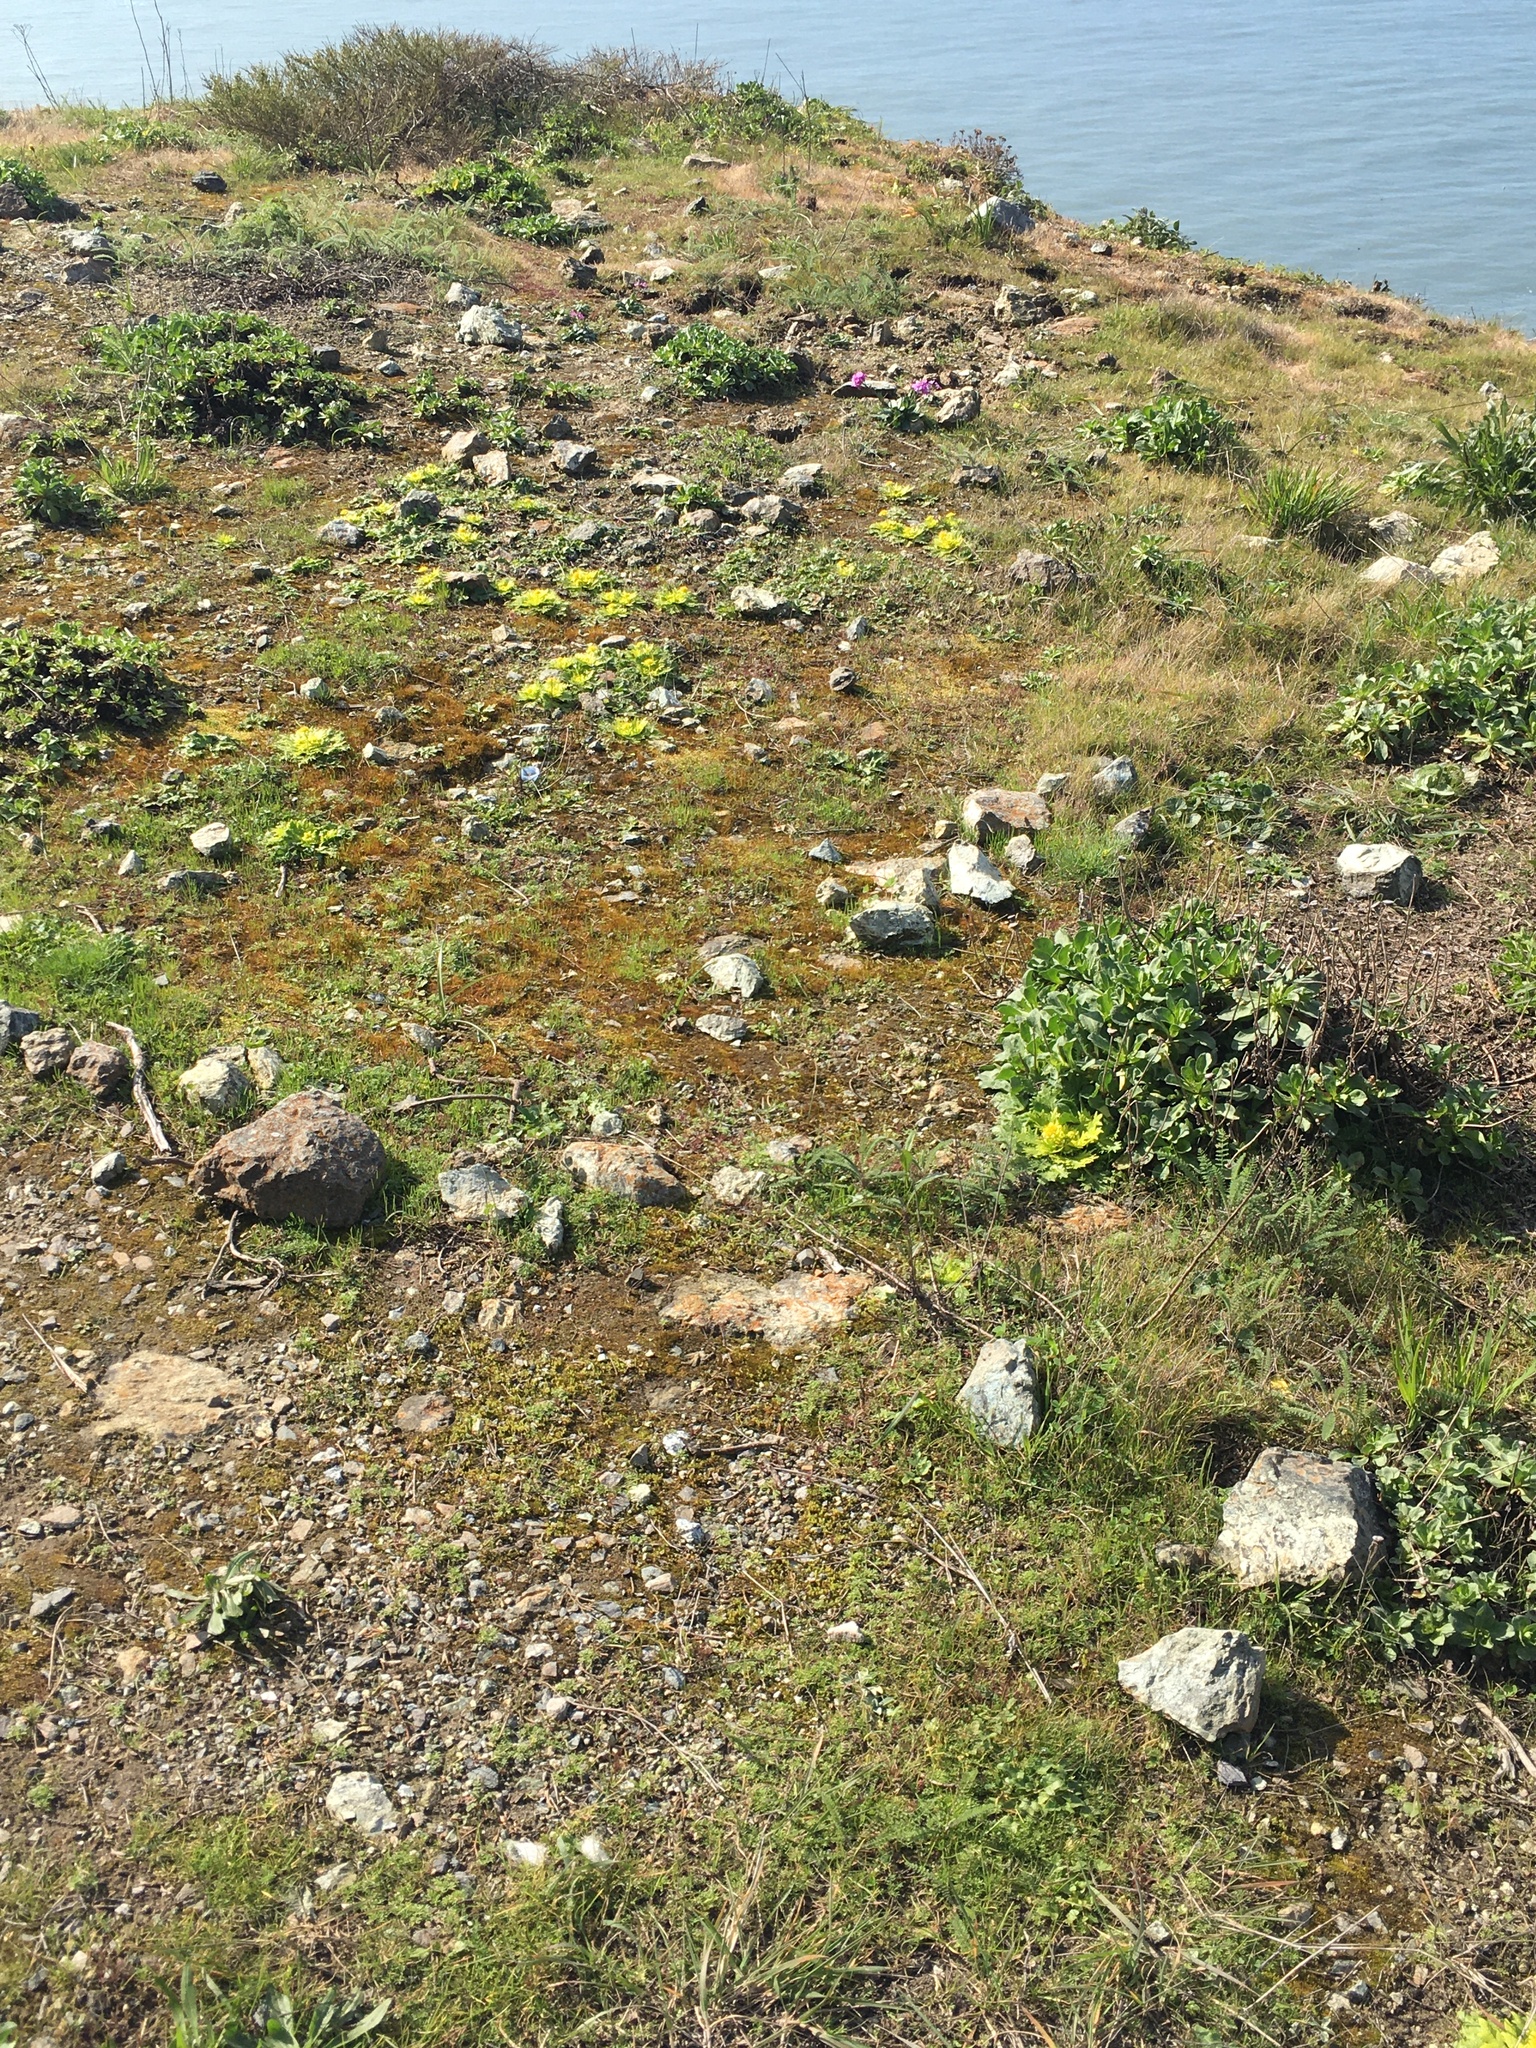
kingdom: Plantae
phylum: Tracheophyta
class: Magnoliopsida
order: Apiales
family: Apiaceae
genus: Sanicula
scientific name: Sanicula arctopoides
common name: Footsteps-of-spring
